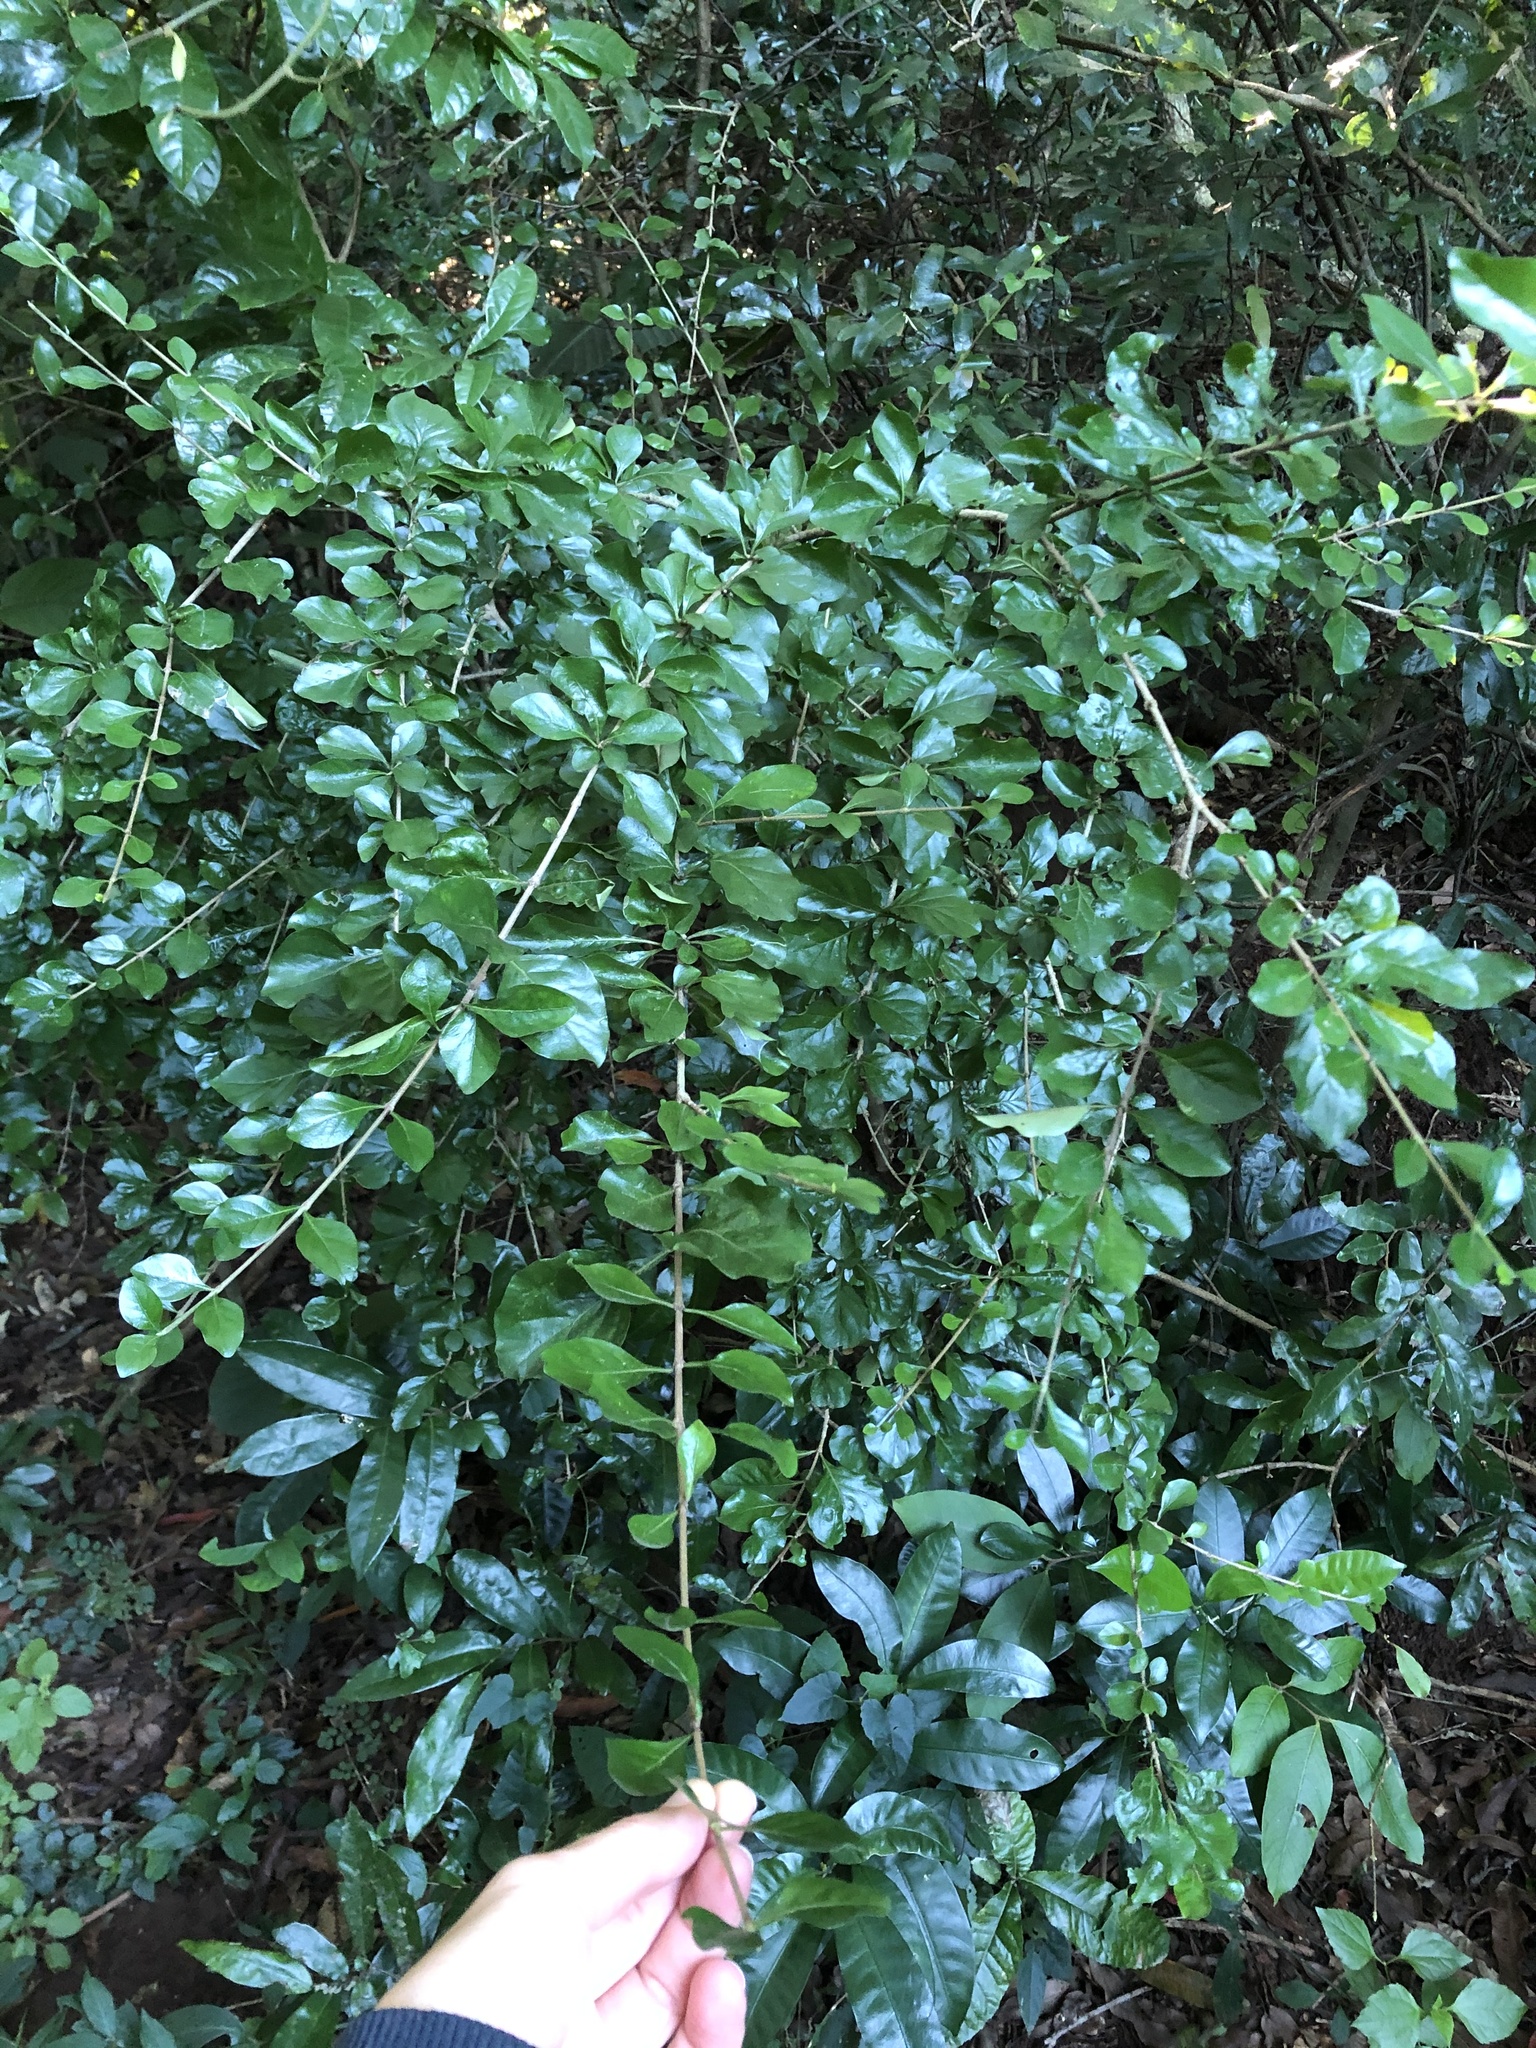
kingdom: Plantae
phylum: Tracheophyta
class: Magnoliopsida
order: Gentianales
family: Rubiaceae
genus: Coddia
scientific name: Coddia rudis
